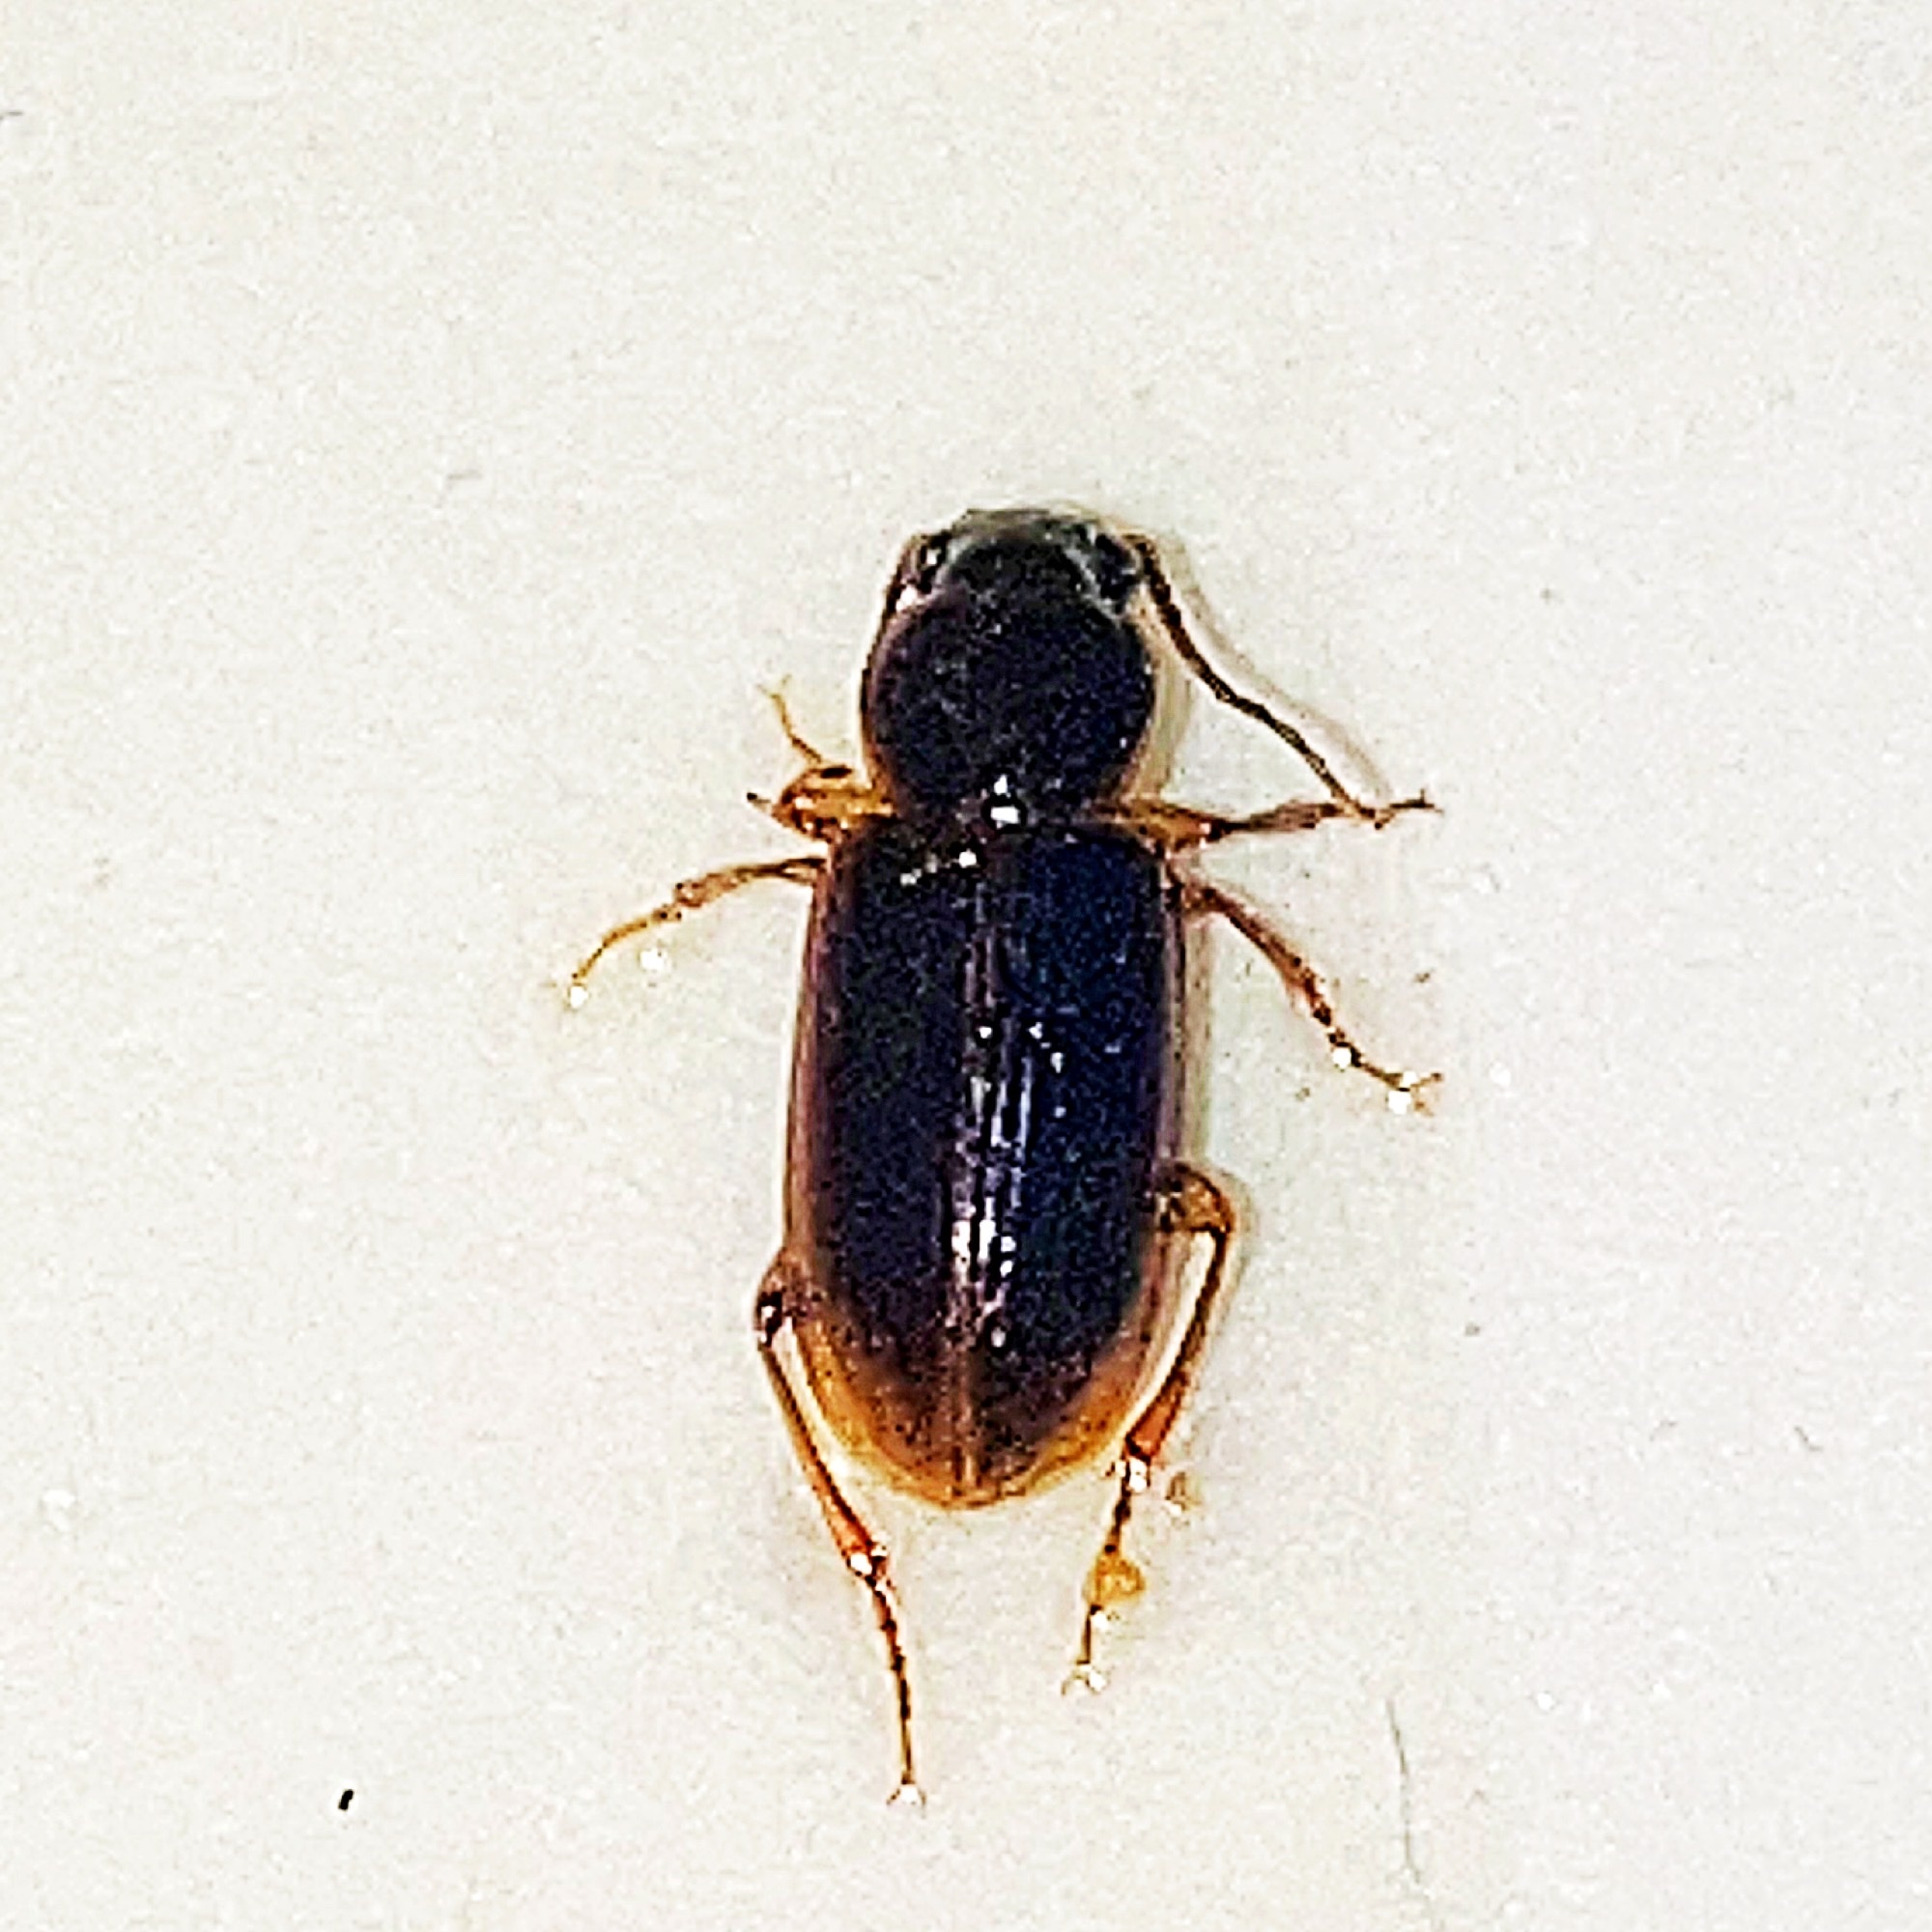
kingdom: Animalia
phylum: Arthropoda
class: Insecta
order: Coleoptera
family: Carabidae
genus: Stenolophus
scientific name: Stenolophus ochropezus
